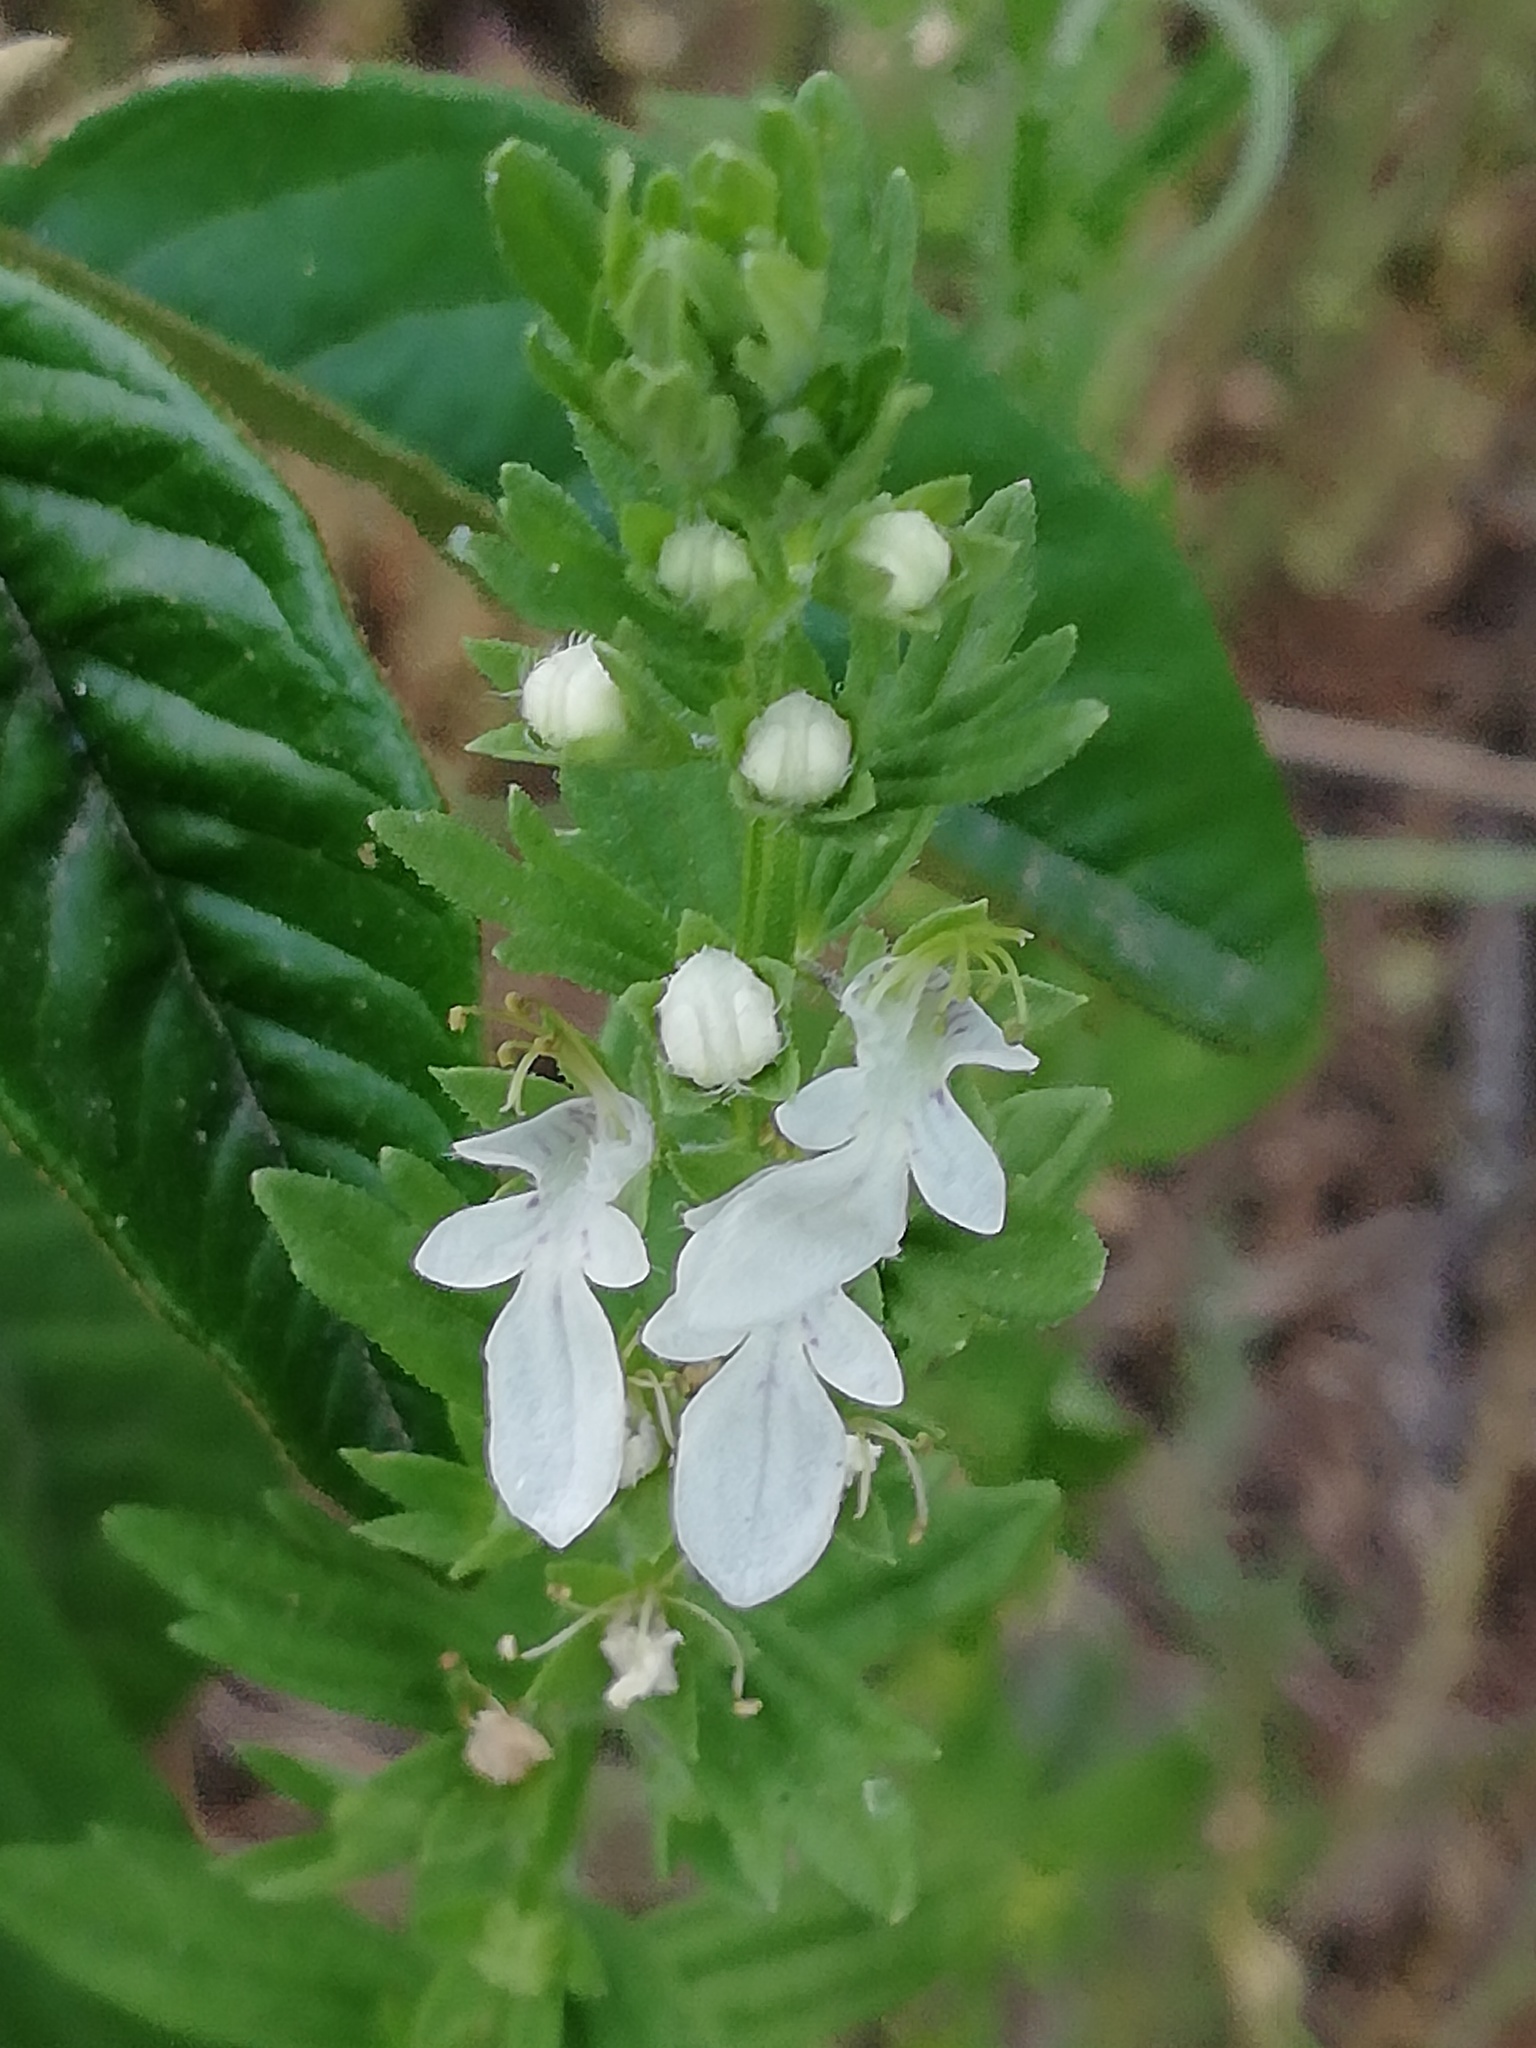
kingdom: Plantae
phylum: Tracheophyta
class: Magnoliopsida
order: Lamiales
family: Lamiaceae
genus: Teucrium
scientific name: Teucrium cubense
